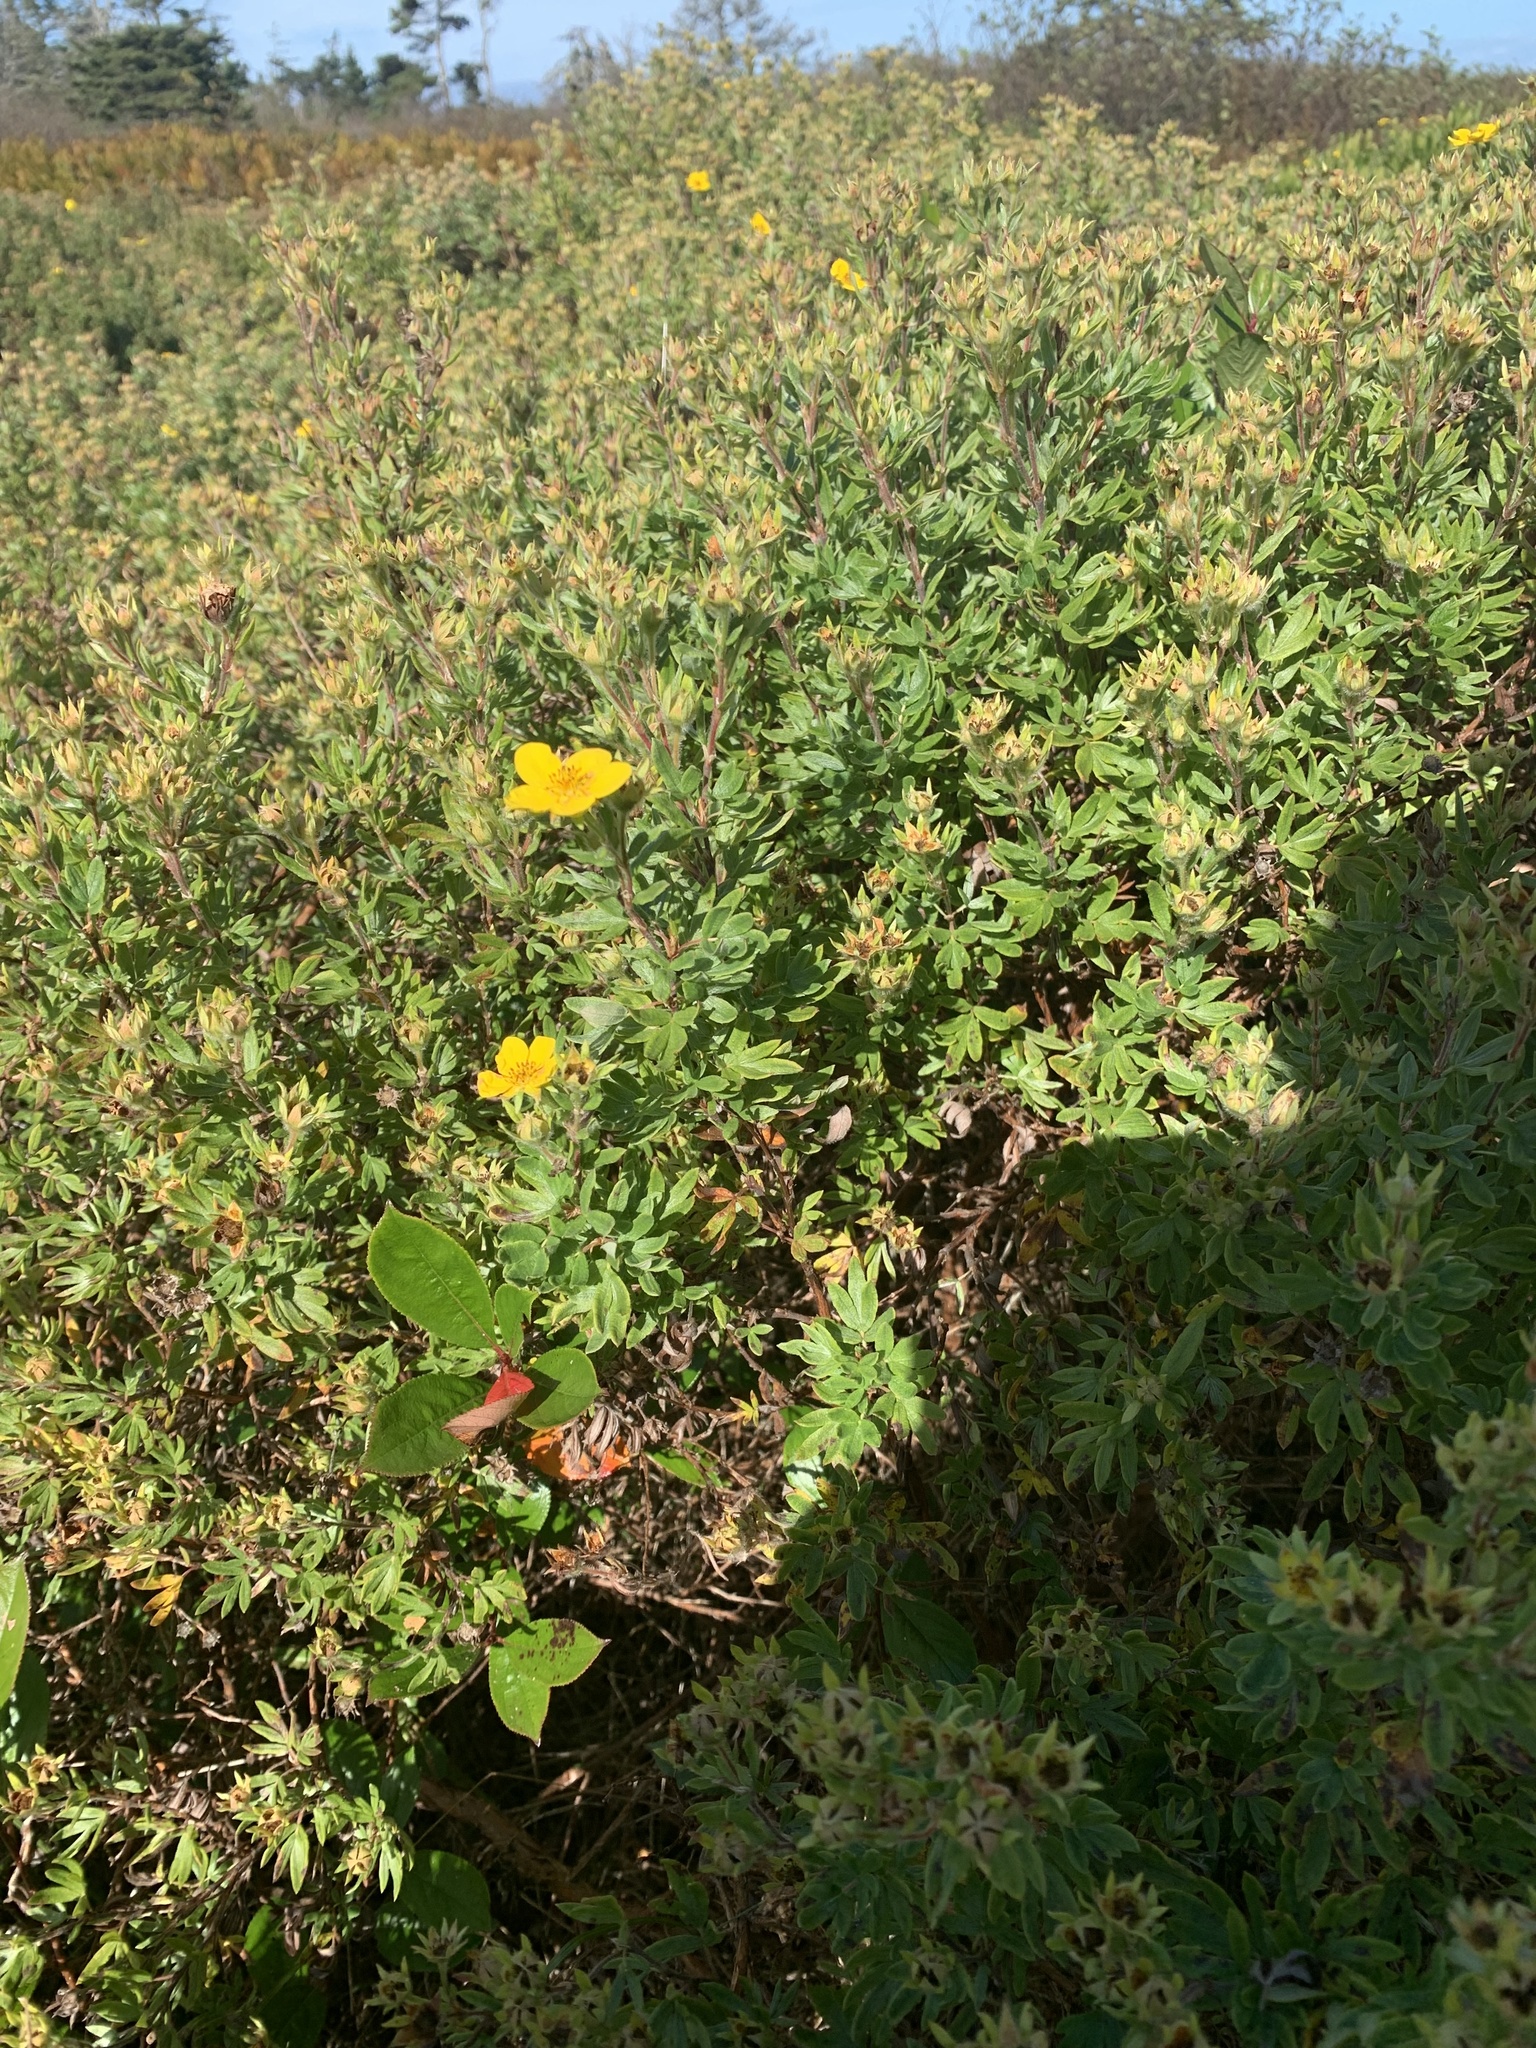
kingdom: Plantae
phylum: Tracheophyta
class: Magnoliopsida
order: Rosales
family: Rosaceae
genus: Dasiphora
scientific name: Dasiphora fruticosa
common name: Shrubby cinquefoil
